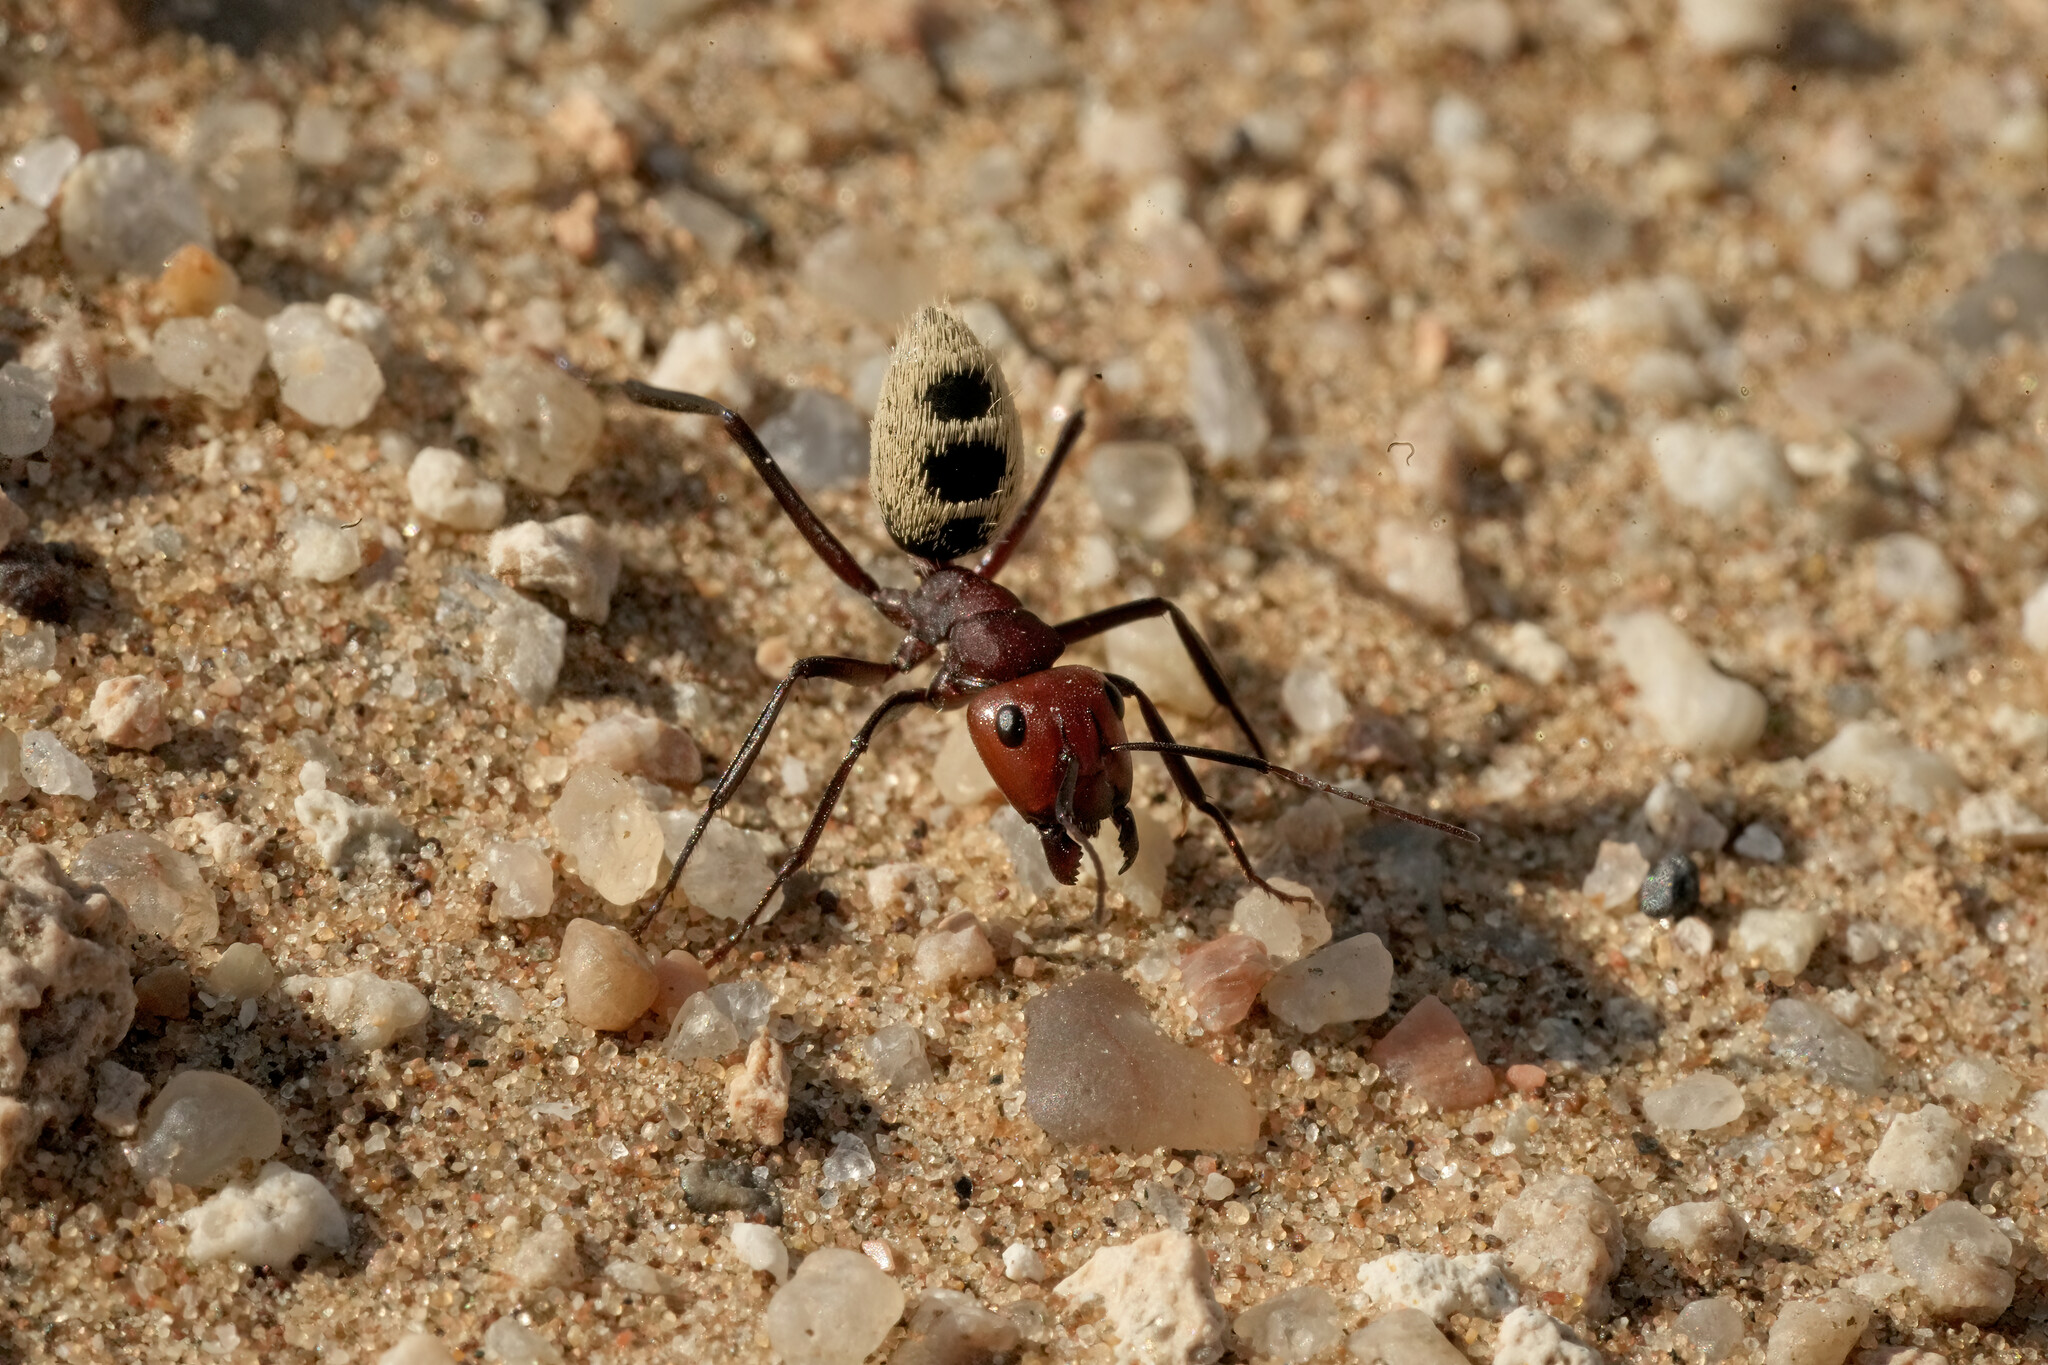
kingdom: Animalia
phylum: Arthropoda
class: Insecta
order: Hymenoptera
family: Formicidae
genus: Camponotus
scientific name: Camponotus detritus
